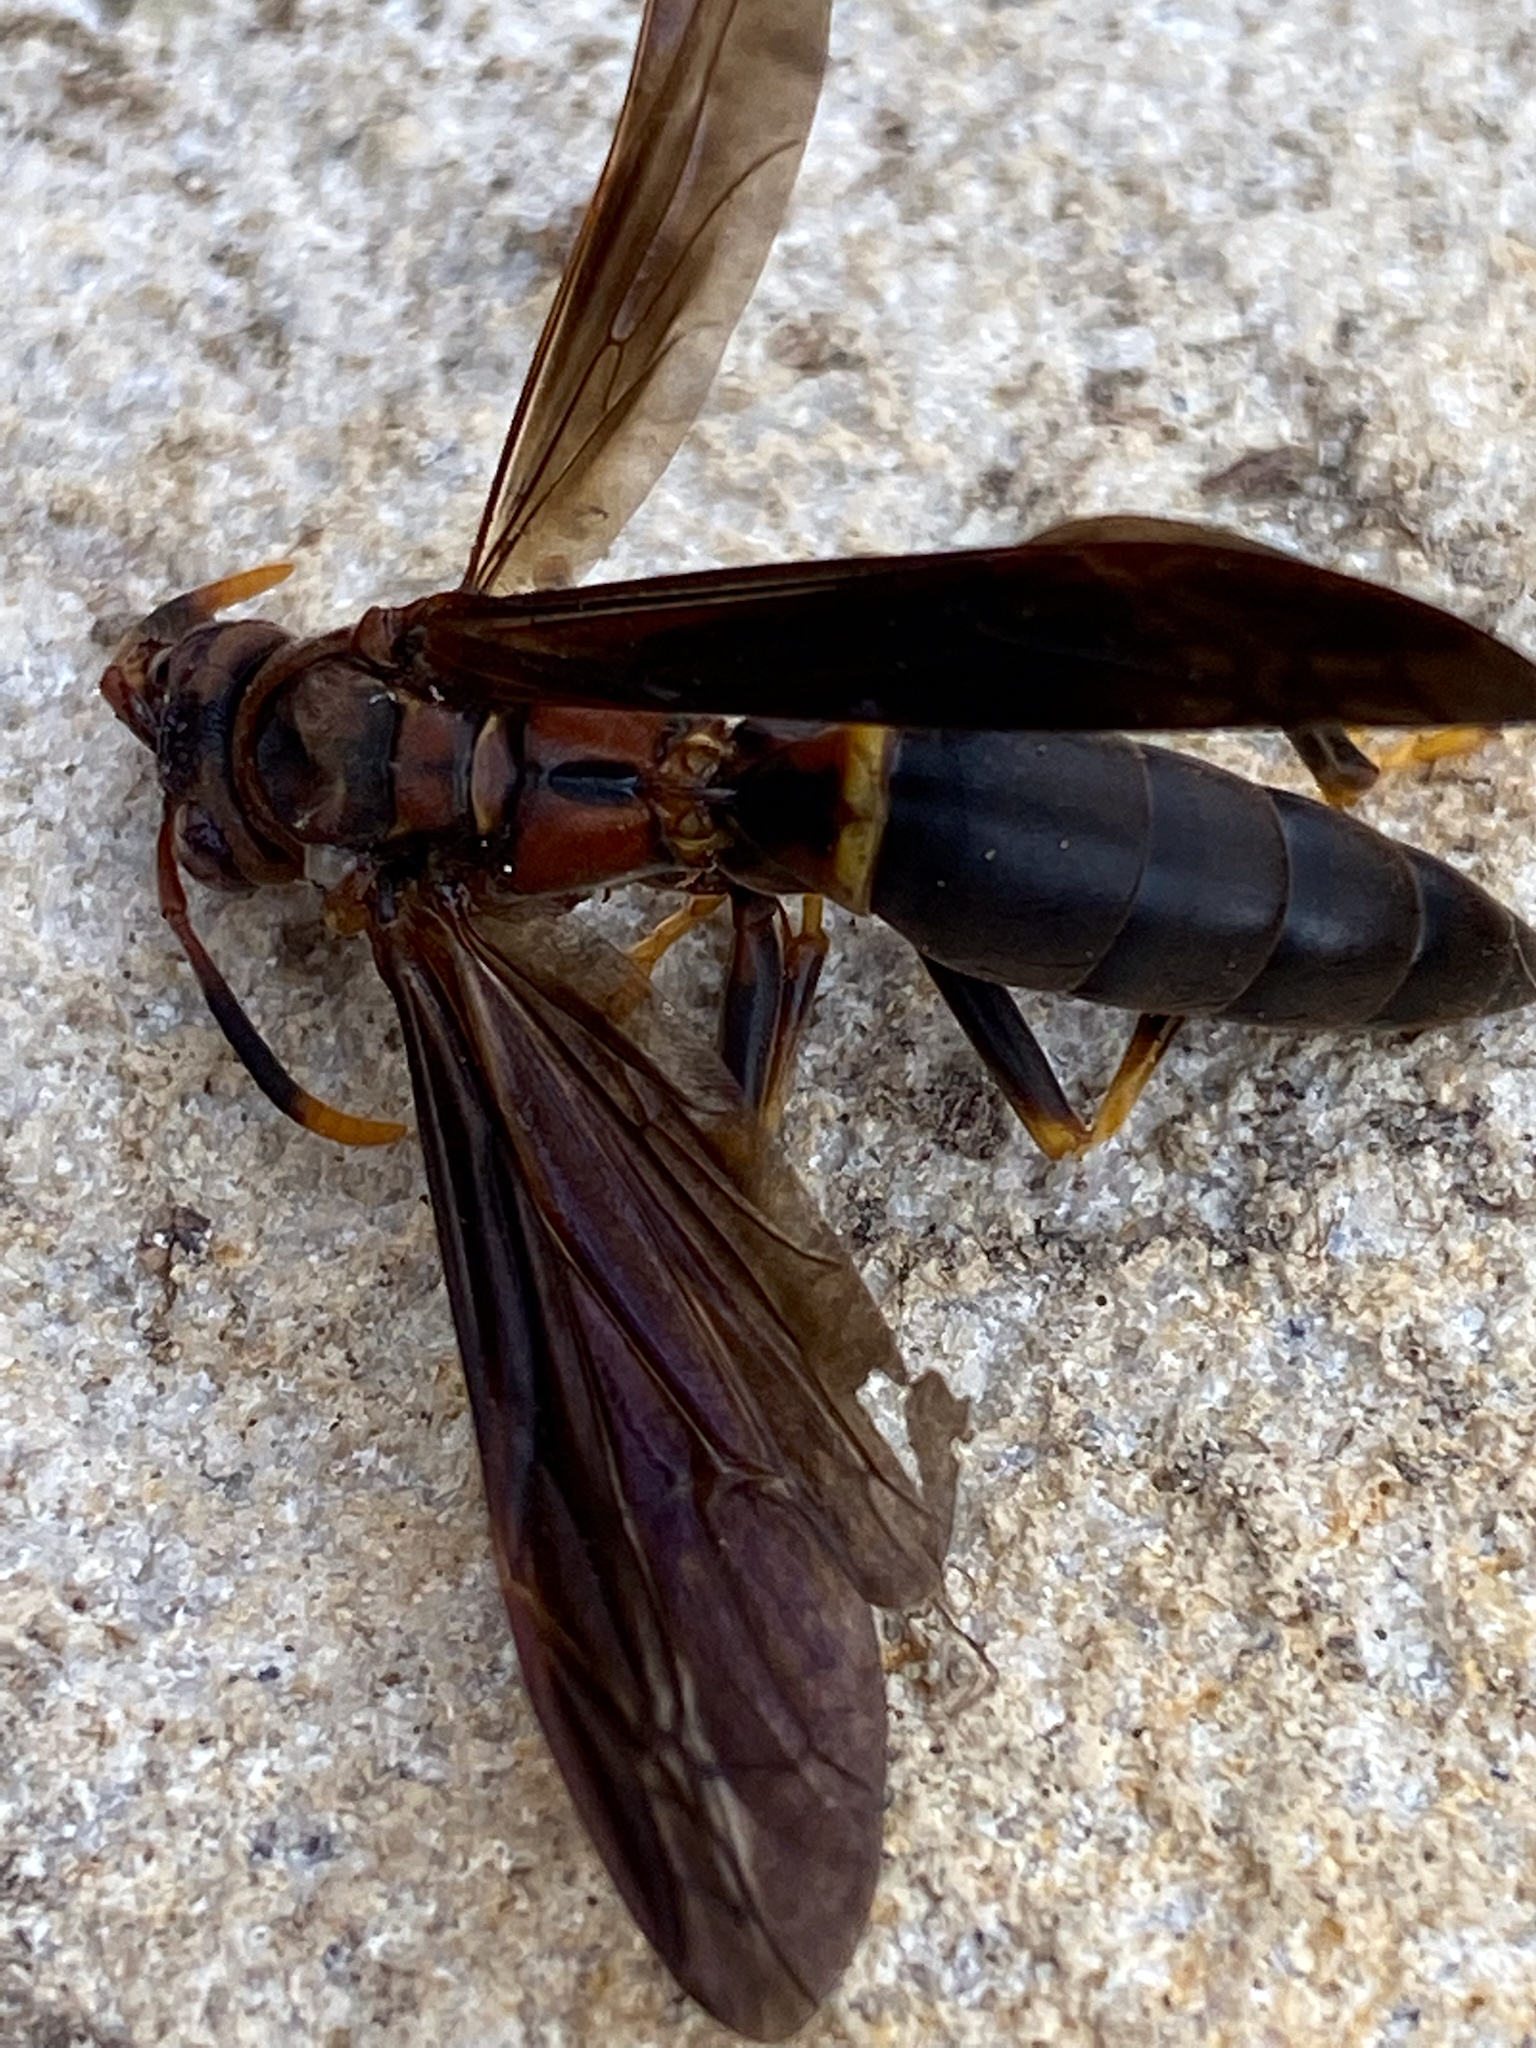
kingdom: Animalia
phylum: Arthropoda
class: Insecta
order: Hymenoptera
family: Eumenidae
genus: Polistes
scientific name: Polistes annularis
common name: Ringed paper wasp
